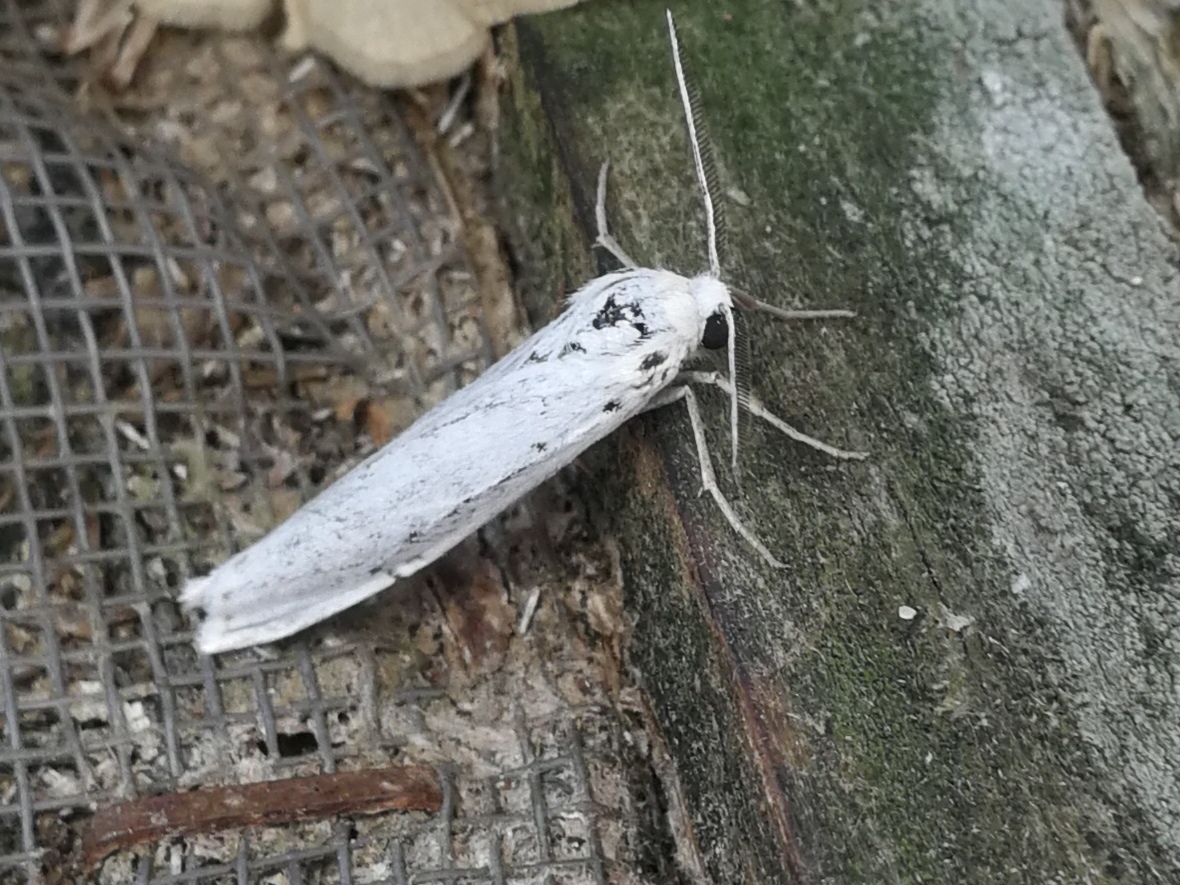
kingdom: Animalia
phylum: Arthropoda
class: Insecta
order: Lepidoptera
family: Erebidae
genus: Coscinia
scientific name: Coscinia cribraria
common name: Speckled footman
